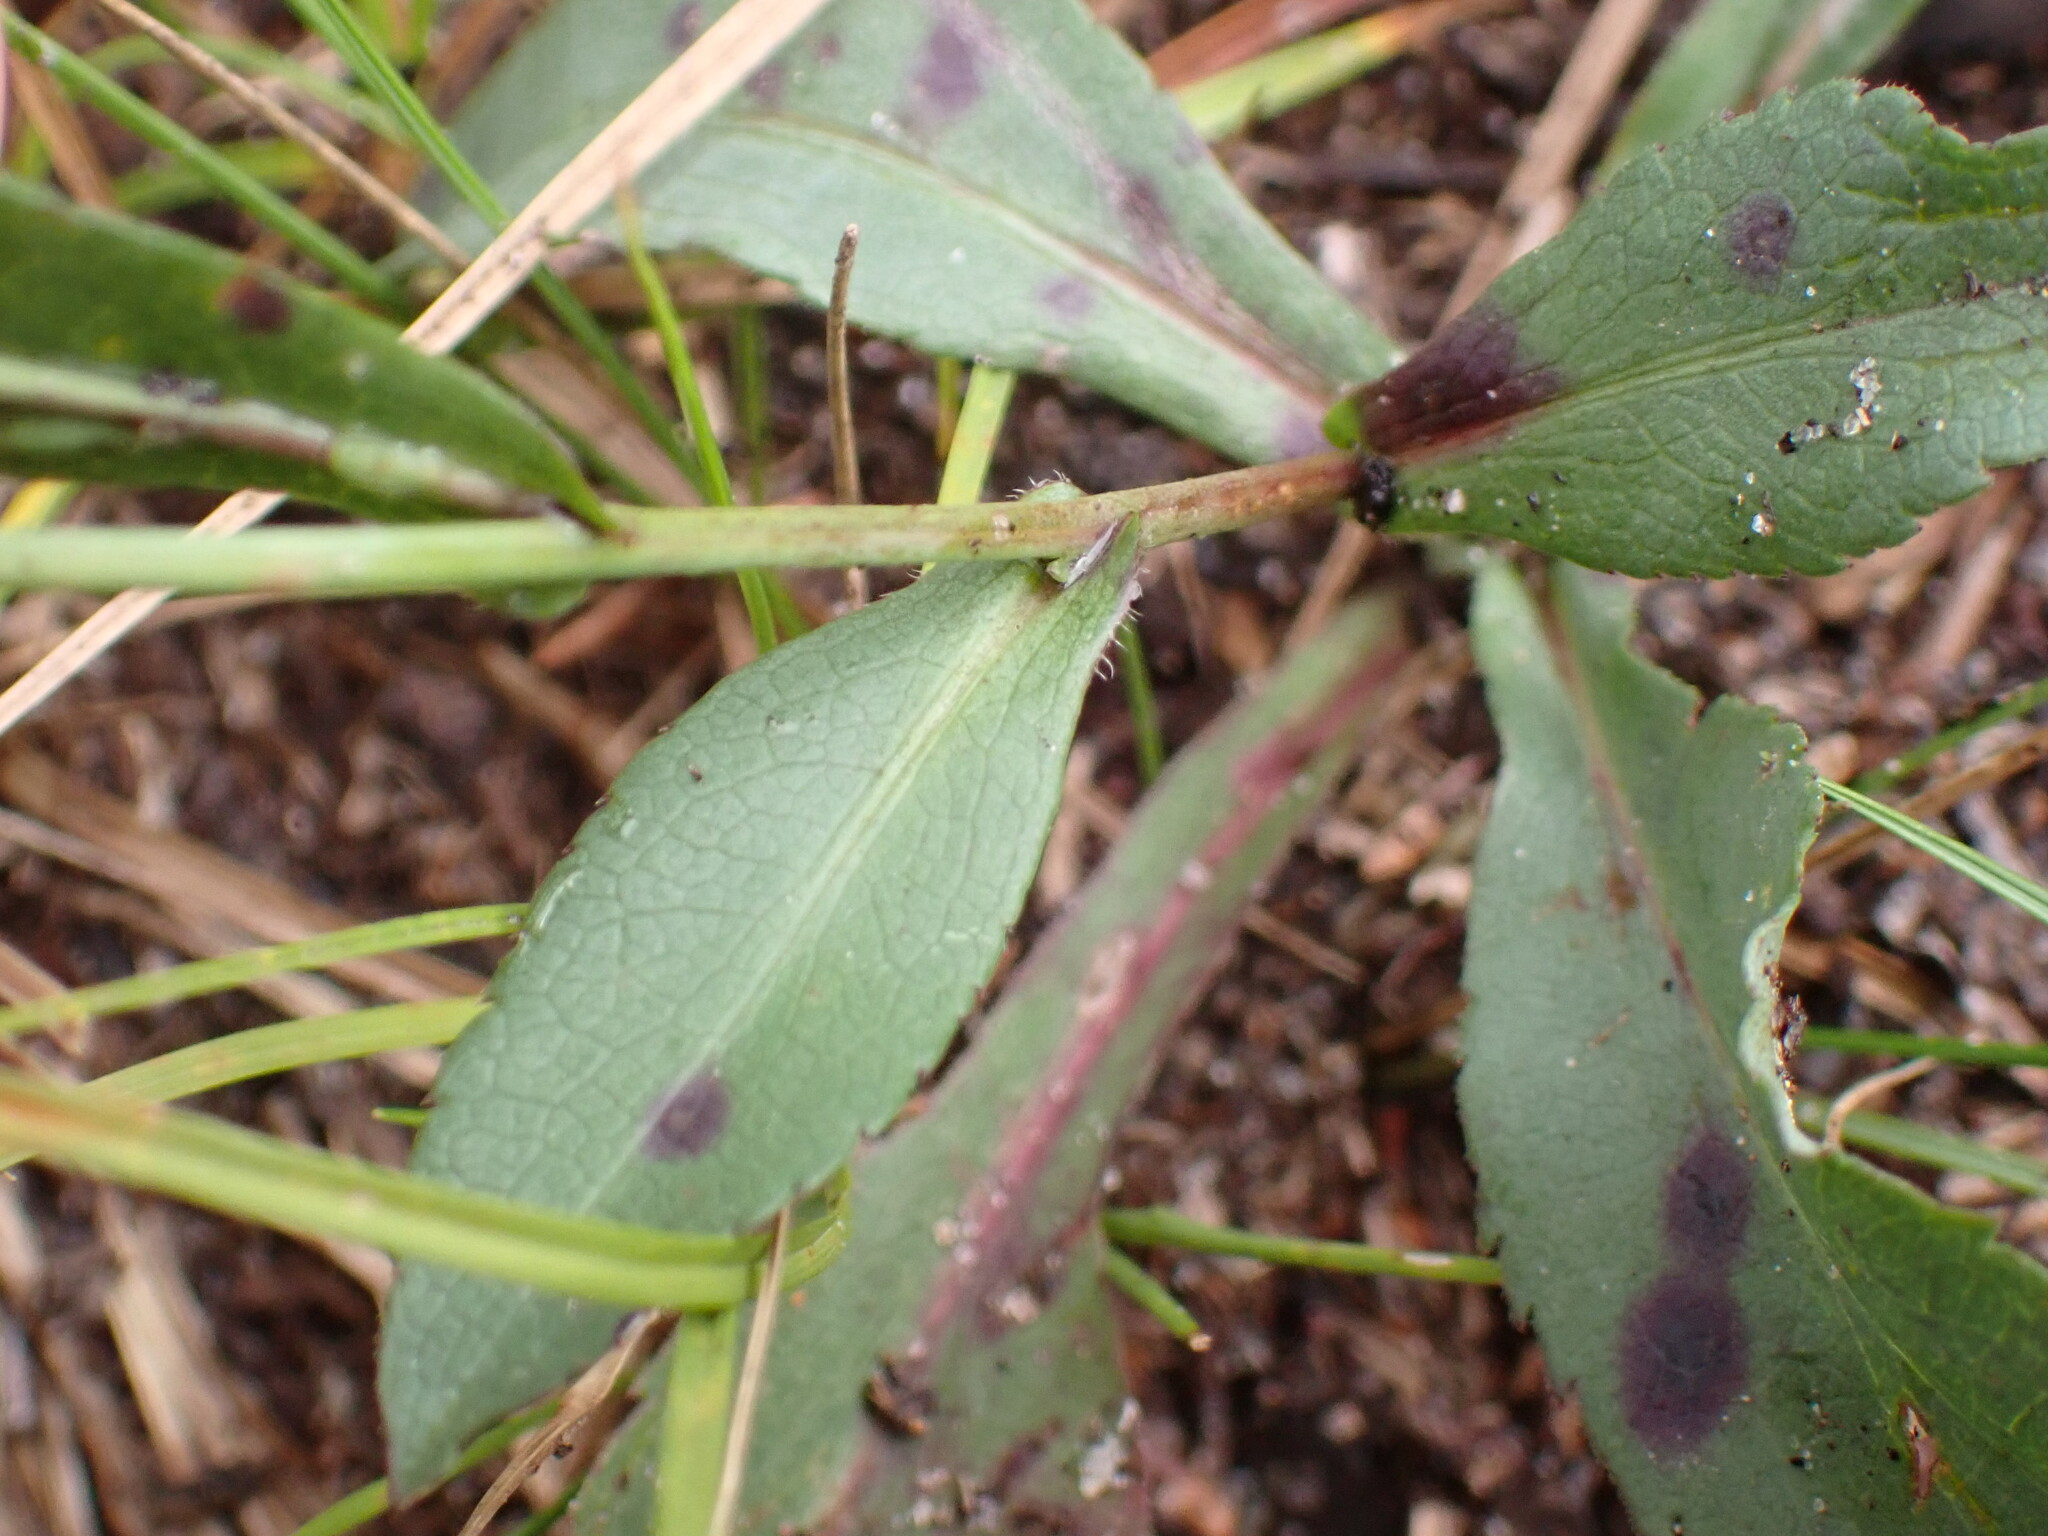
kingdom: Plantae
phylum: Tracheophyta
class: Magnoliopsida
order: Asterales
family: Asteraceae
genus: Symphyotrichum
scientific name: Symphyotrichum ciliolatum
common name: Fringed blue aster
